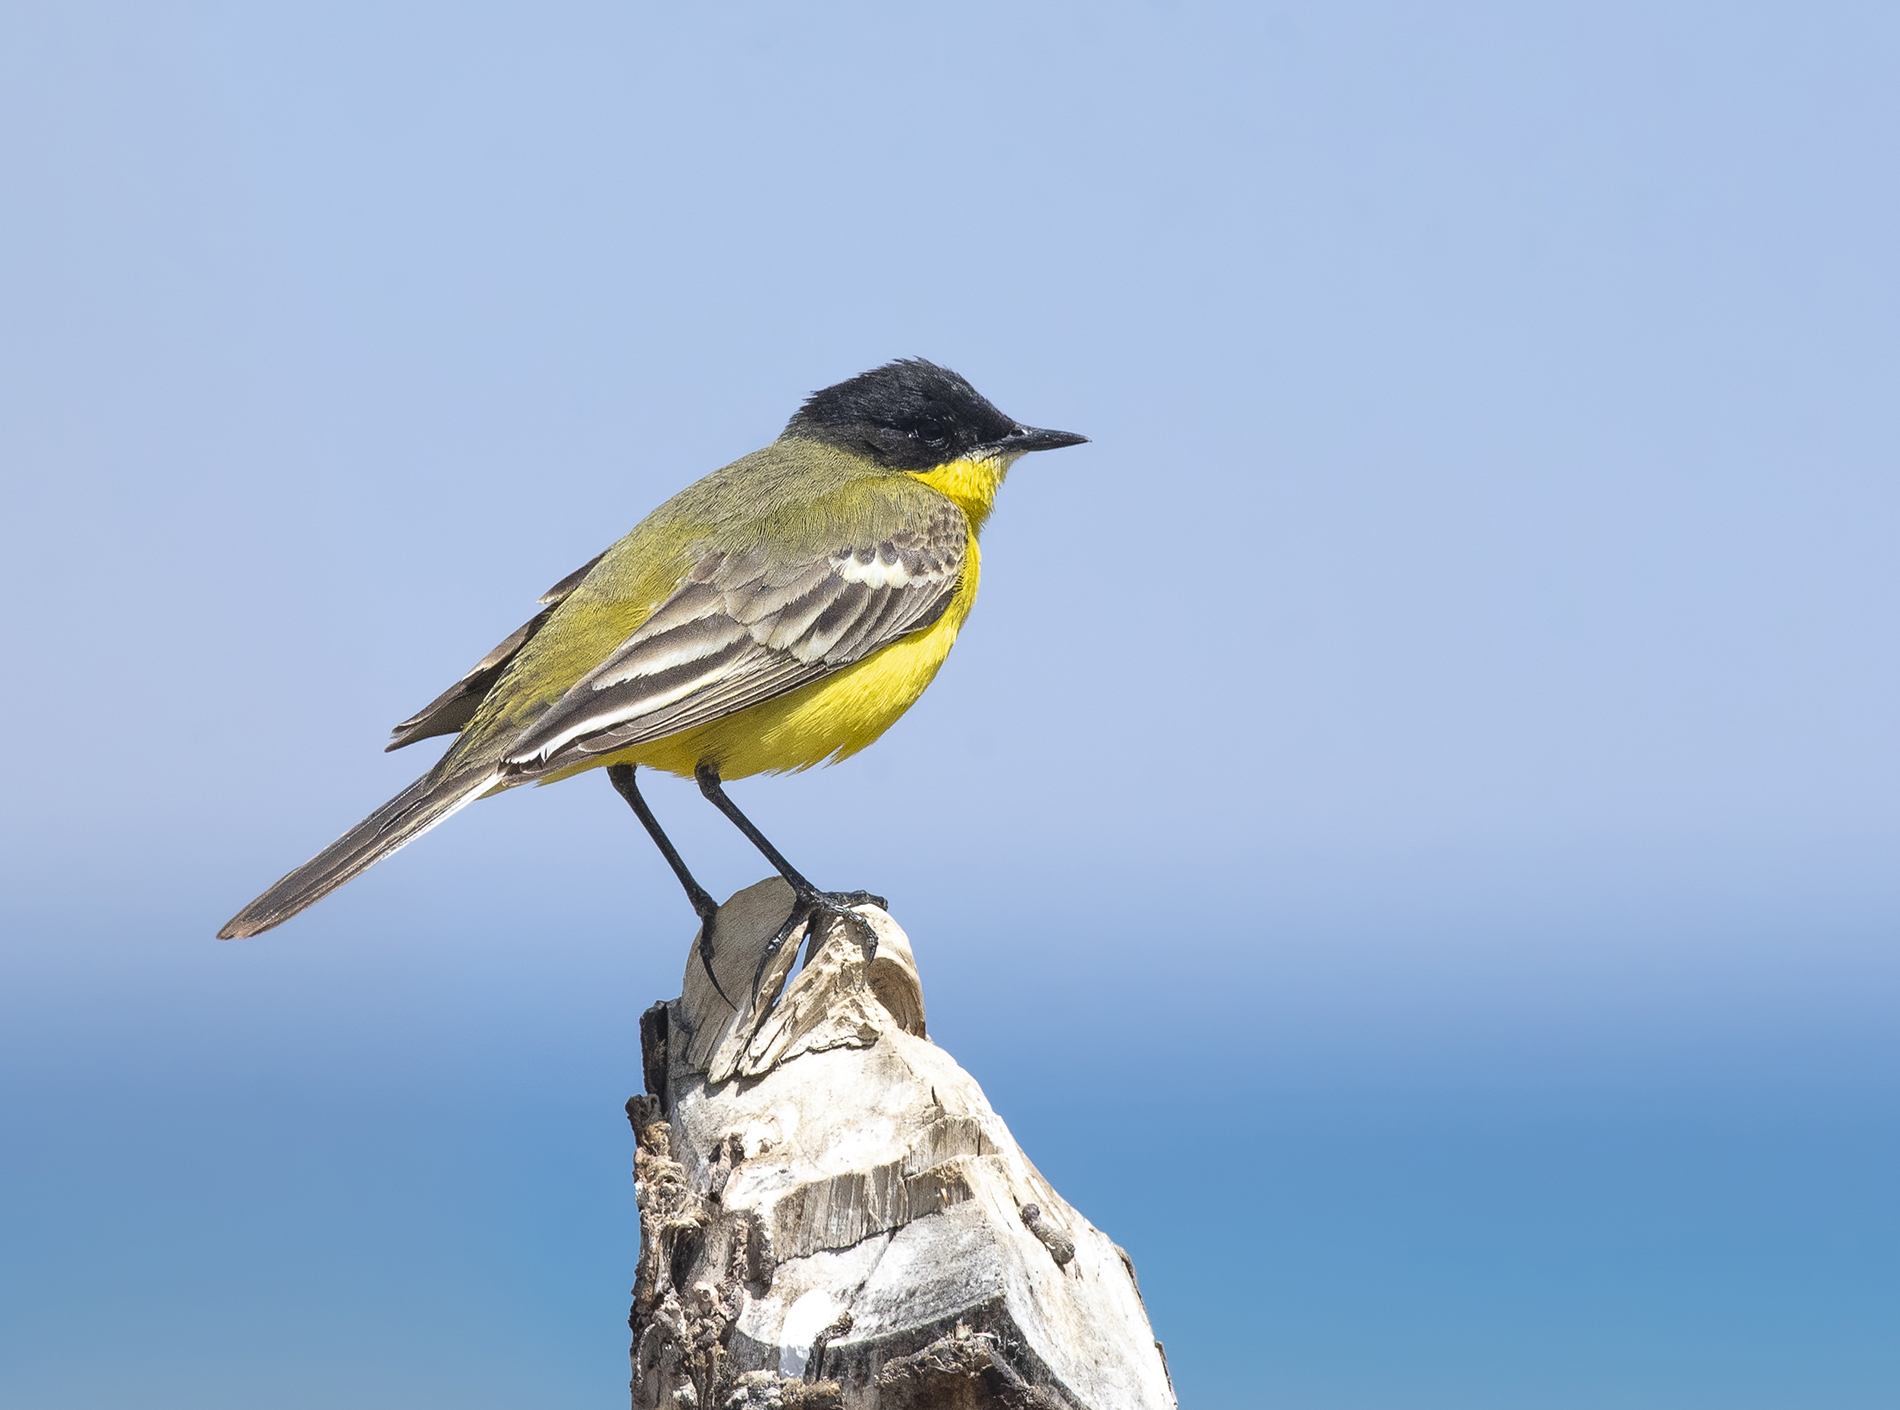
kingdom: Animalia
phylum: Chordata
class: Aves
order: Passeriformes
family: Motacillidae
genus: Motacilla
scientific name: Motacilla flava
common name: Western yellow wagtail
